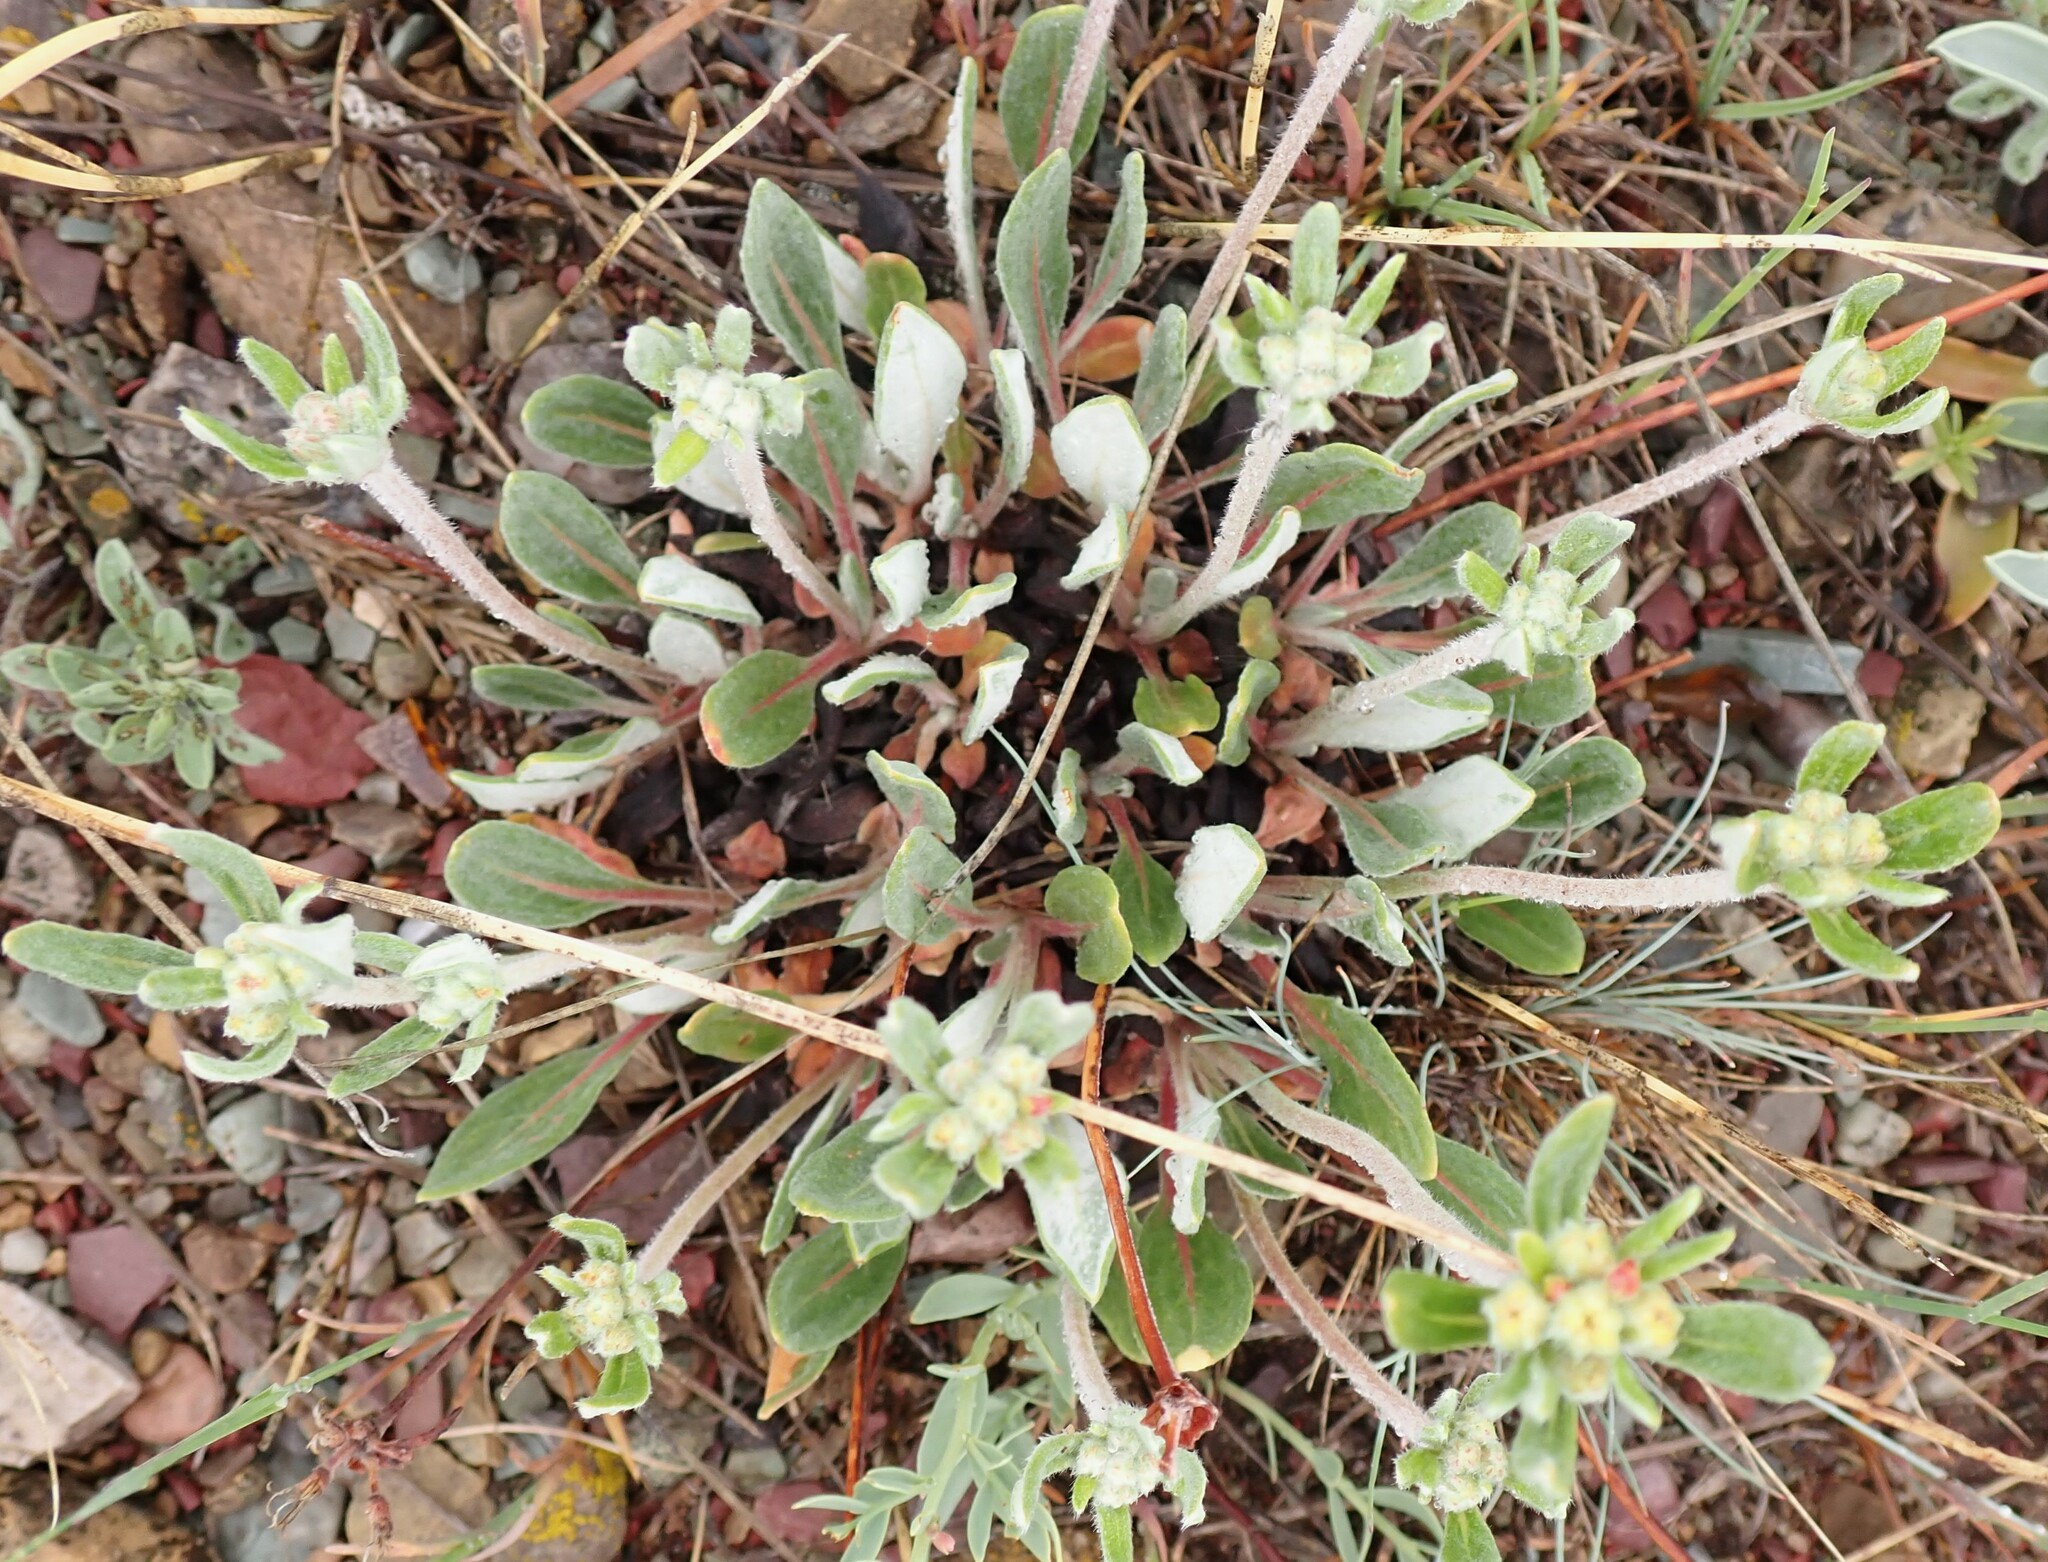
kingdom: Plantae
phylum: Tracheophyta
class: Magnoliopsida
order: Caryophyllales
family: Polygonaceae
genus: Eriogonum
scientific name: Eriogonum flavum
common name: Alpine golden wild buckwheat
